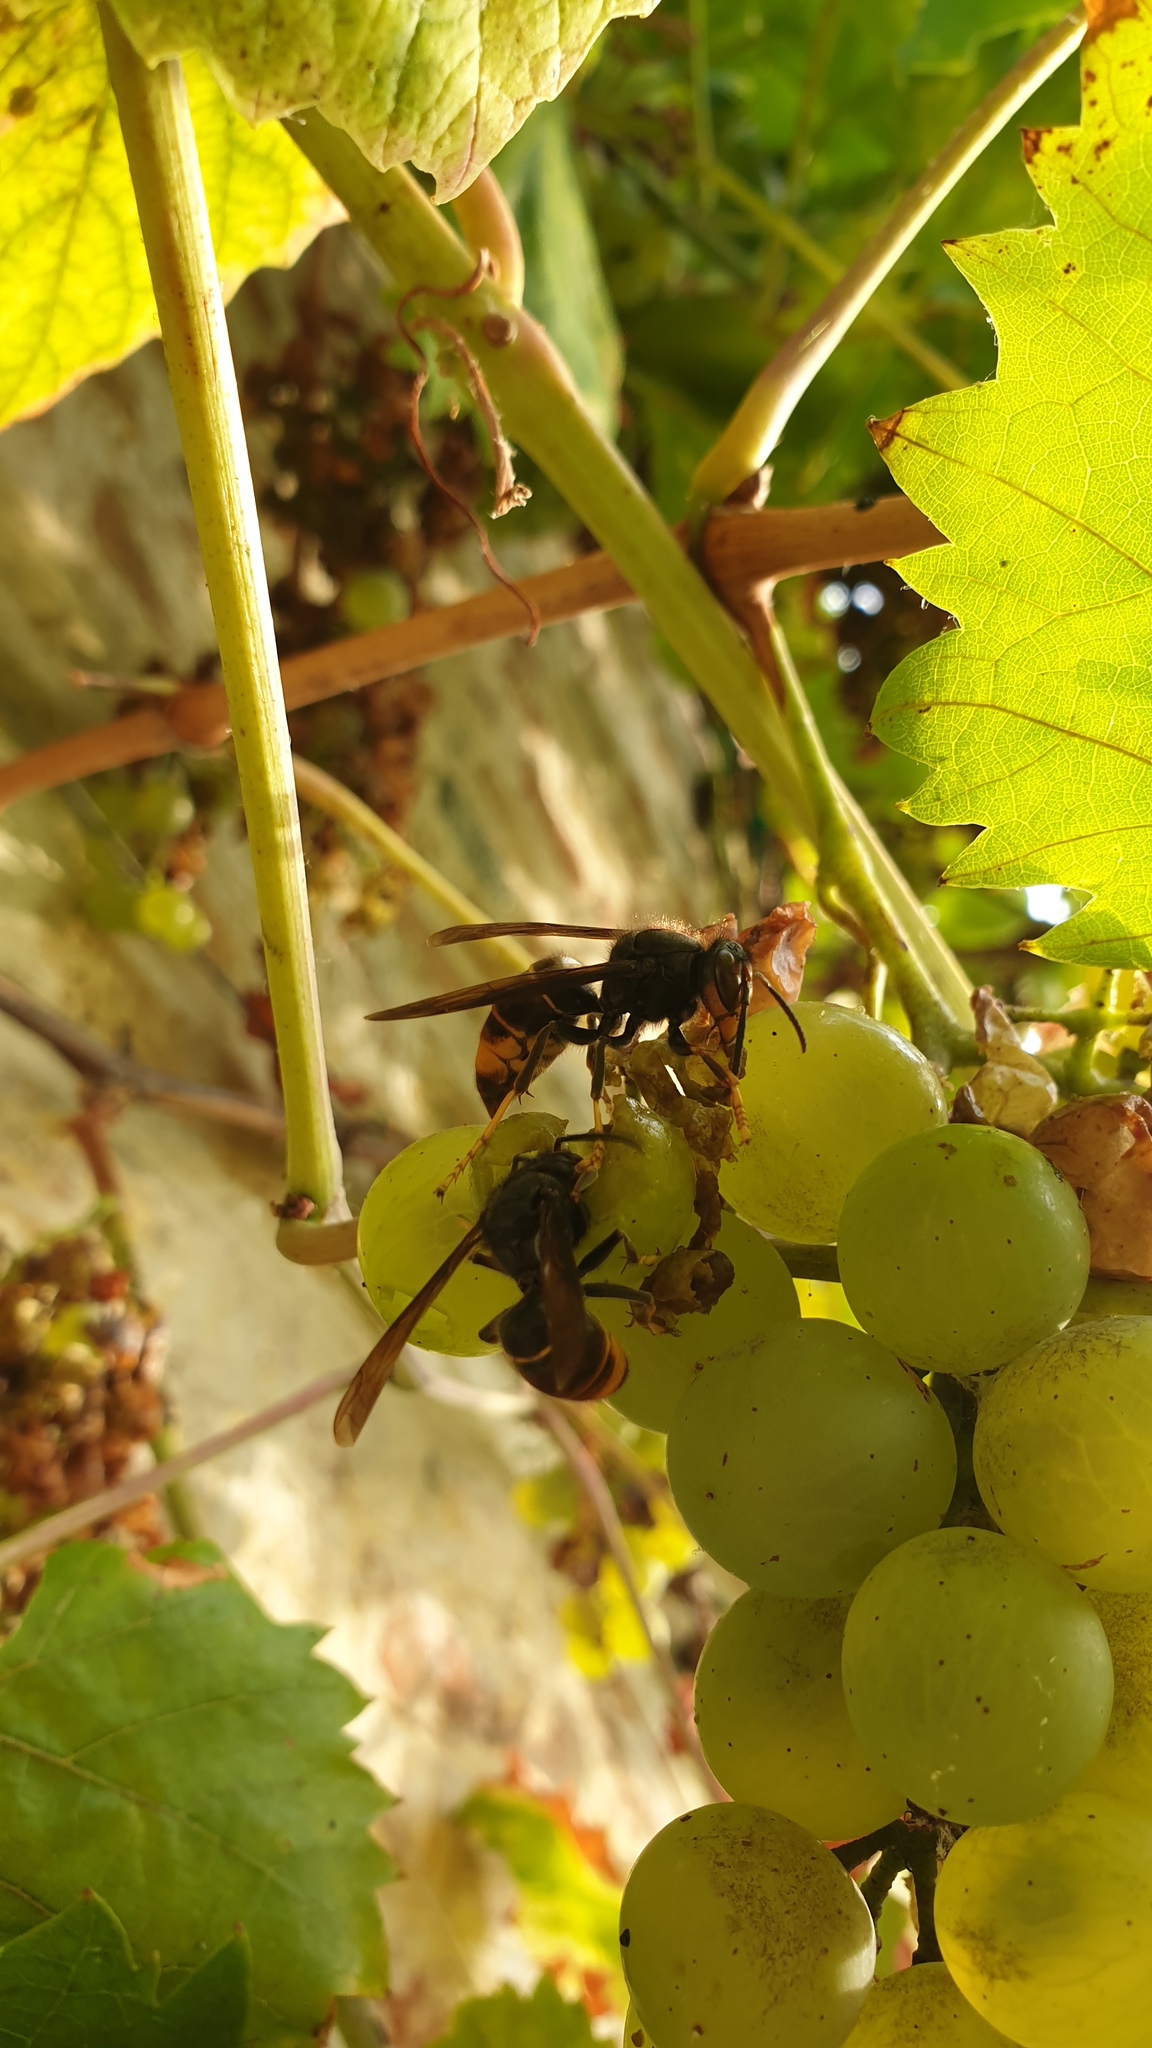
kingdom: Animalia
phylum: Arthropoda
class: Insecta
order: Hymenoptera
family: Vespidae
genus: Vespa
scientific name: Vespa velutina
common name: Asian hornet
